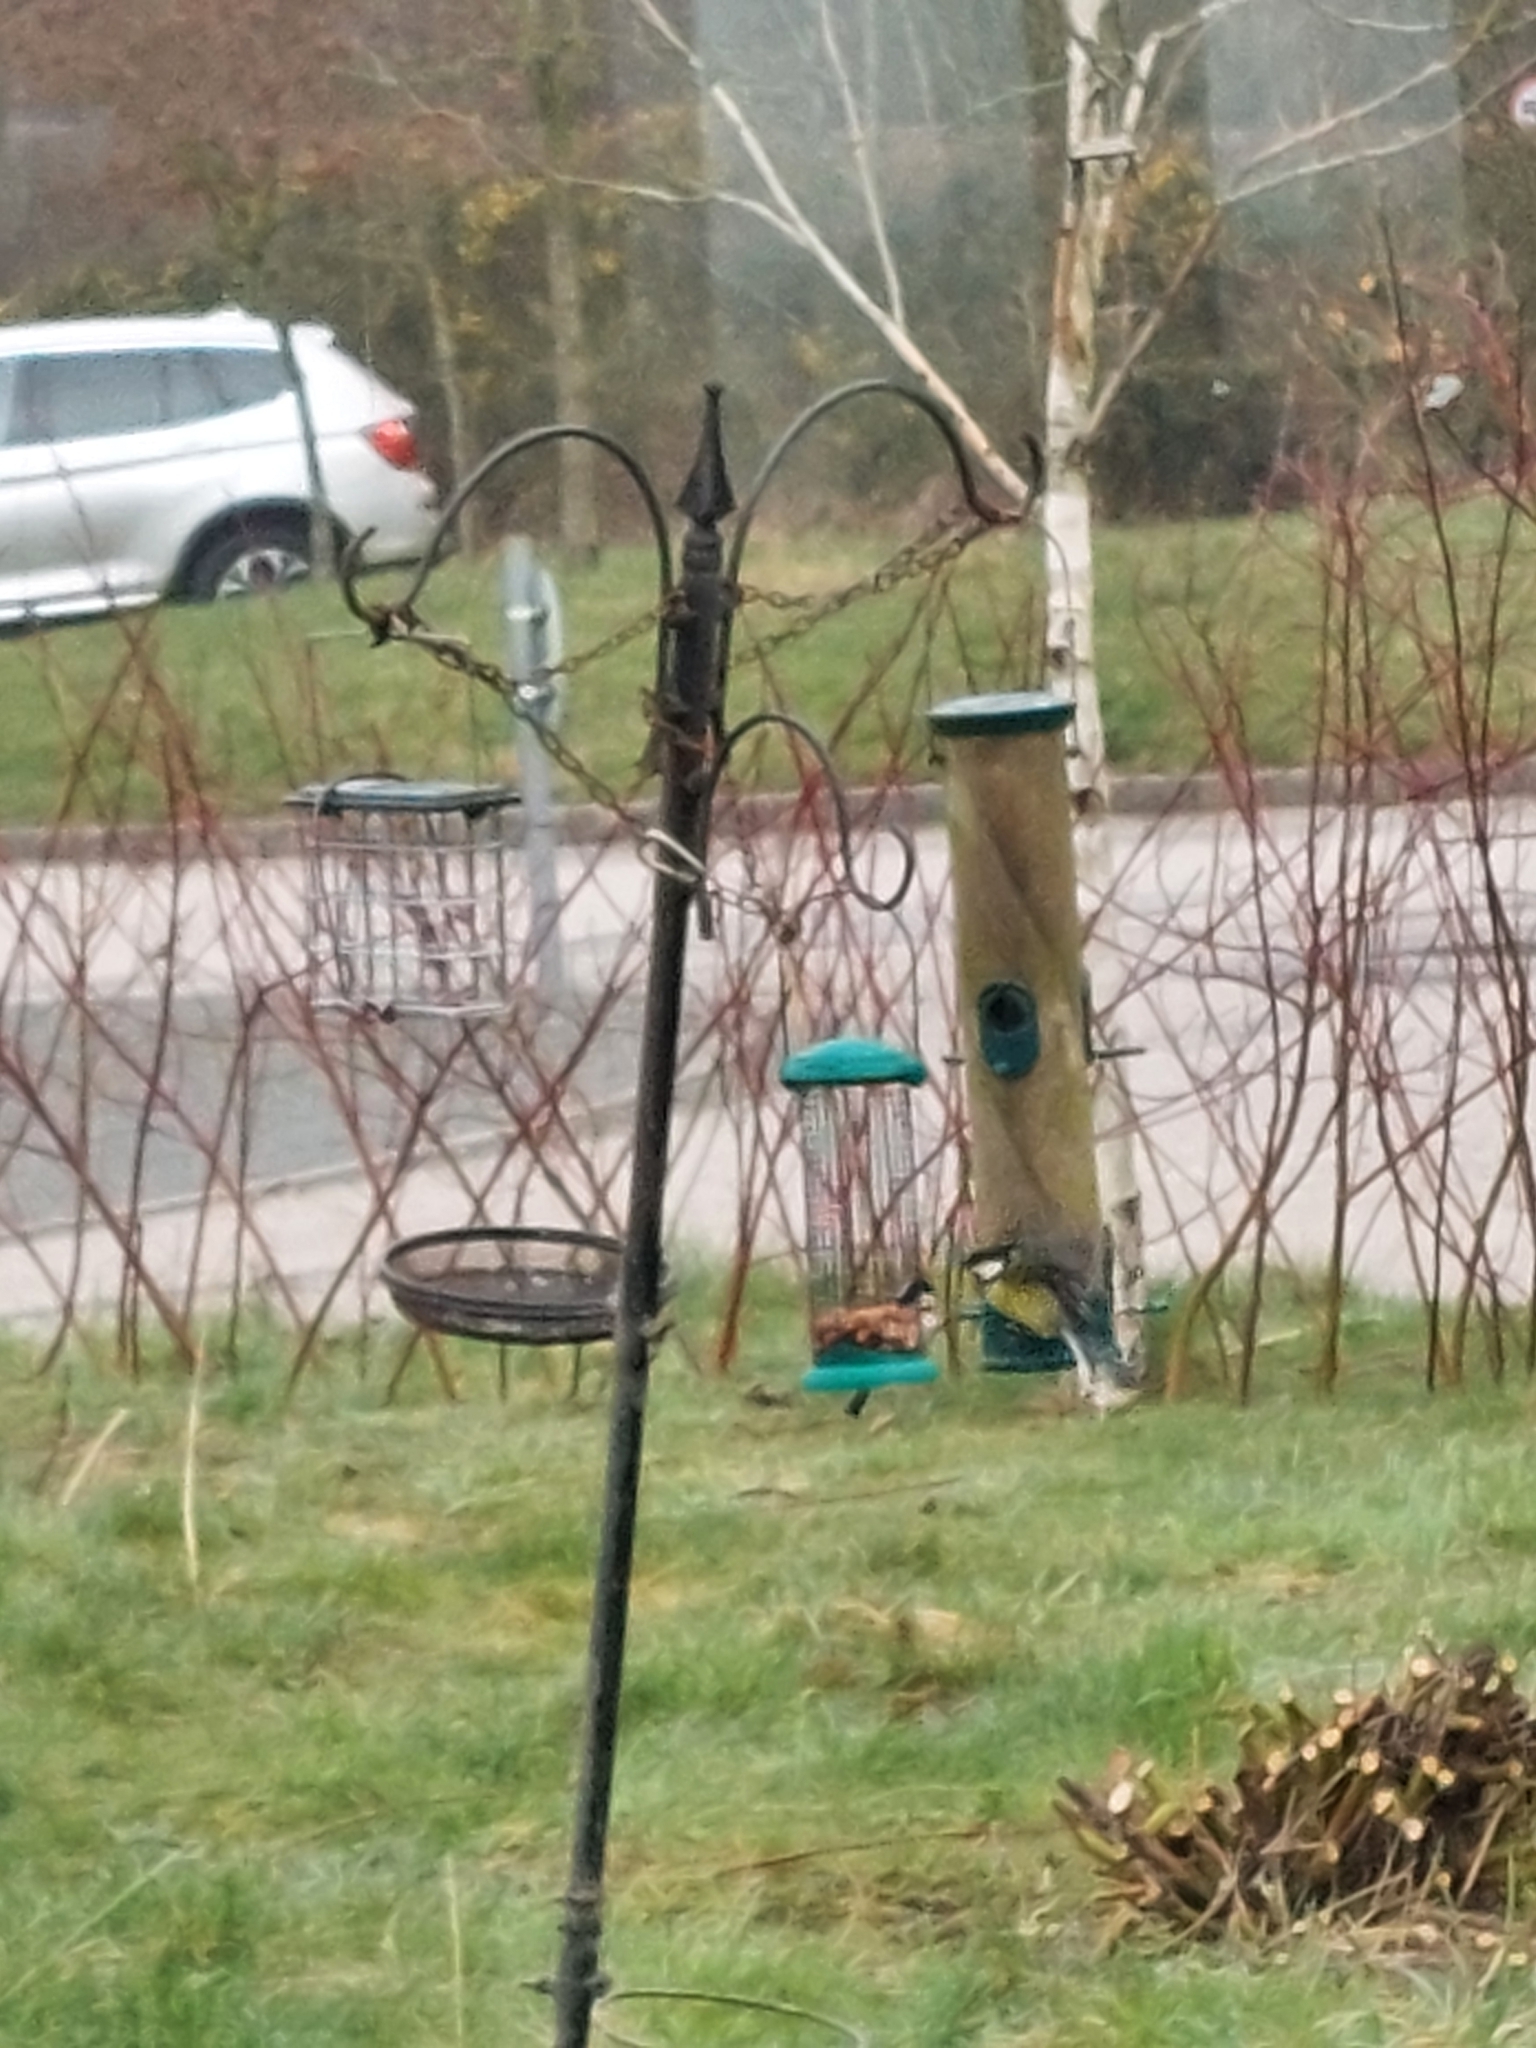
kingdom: Animalia
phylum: Chordata
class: Aves
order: Passeriformes
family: Paridae
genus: Parus
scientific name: Parus major
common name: Great tit
